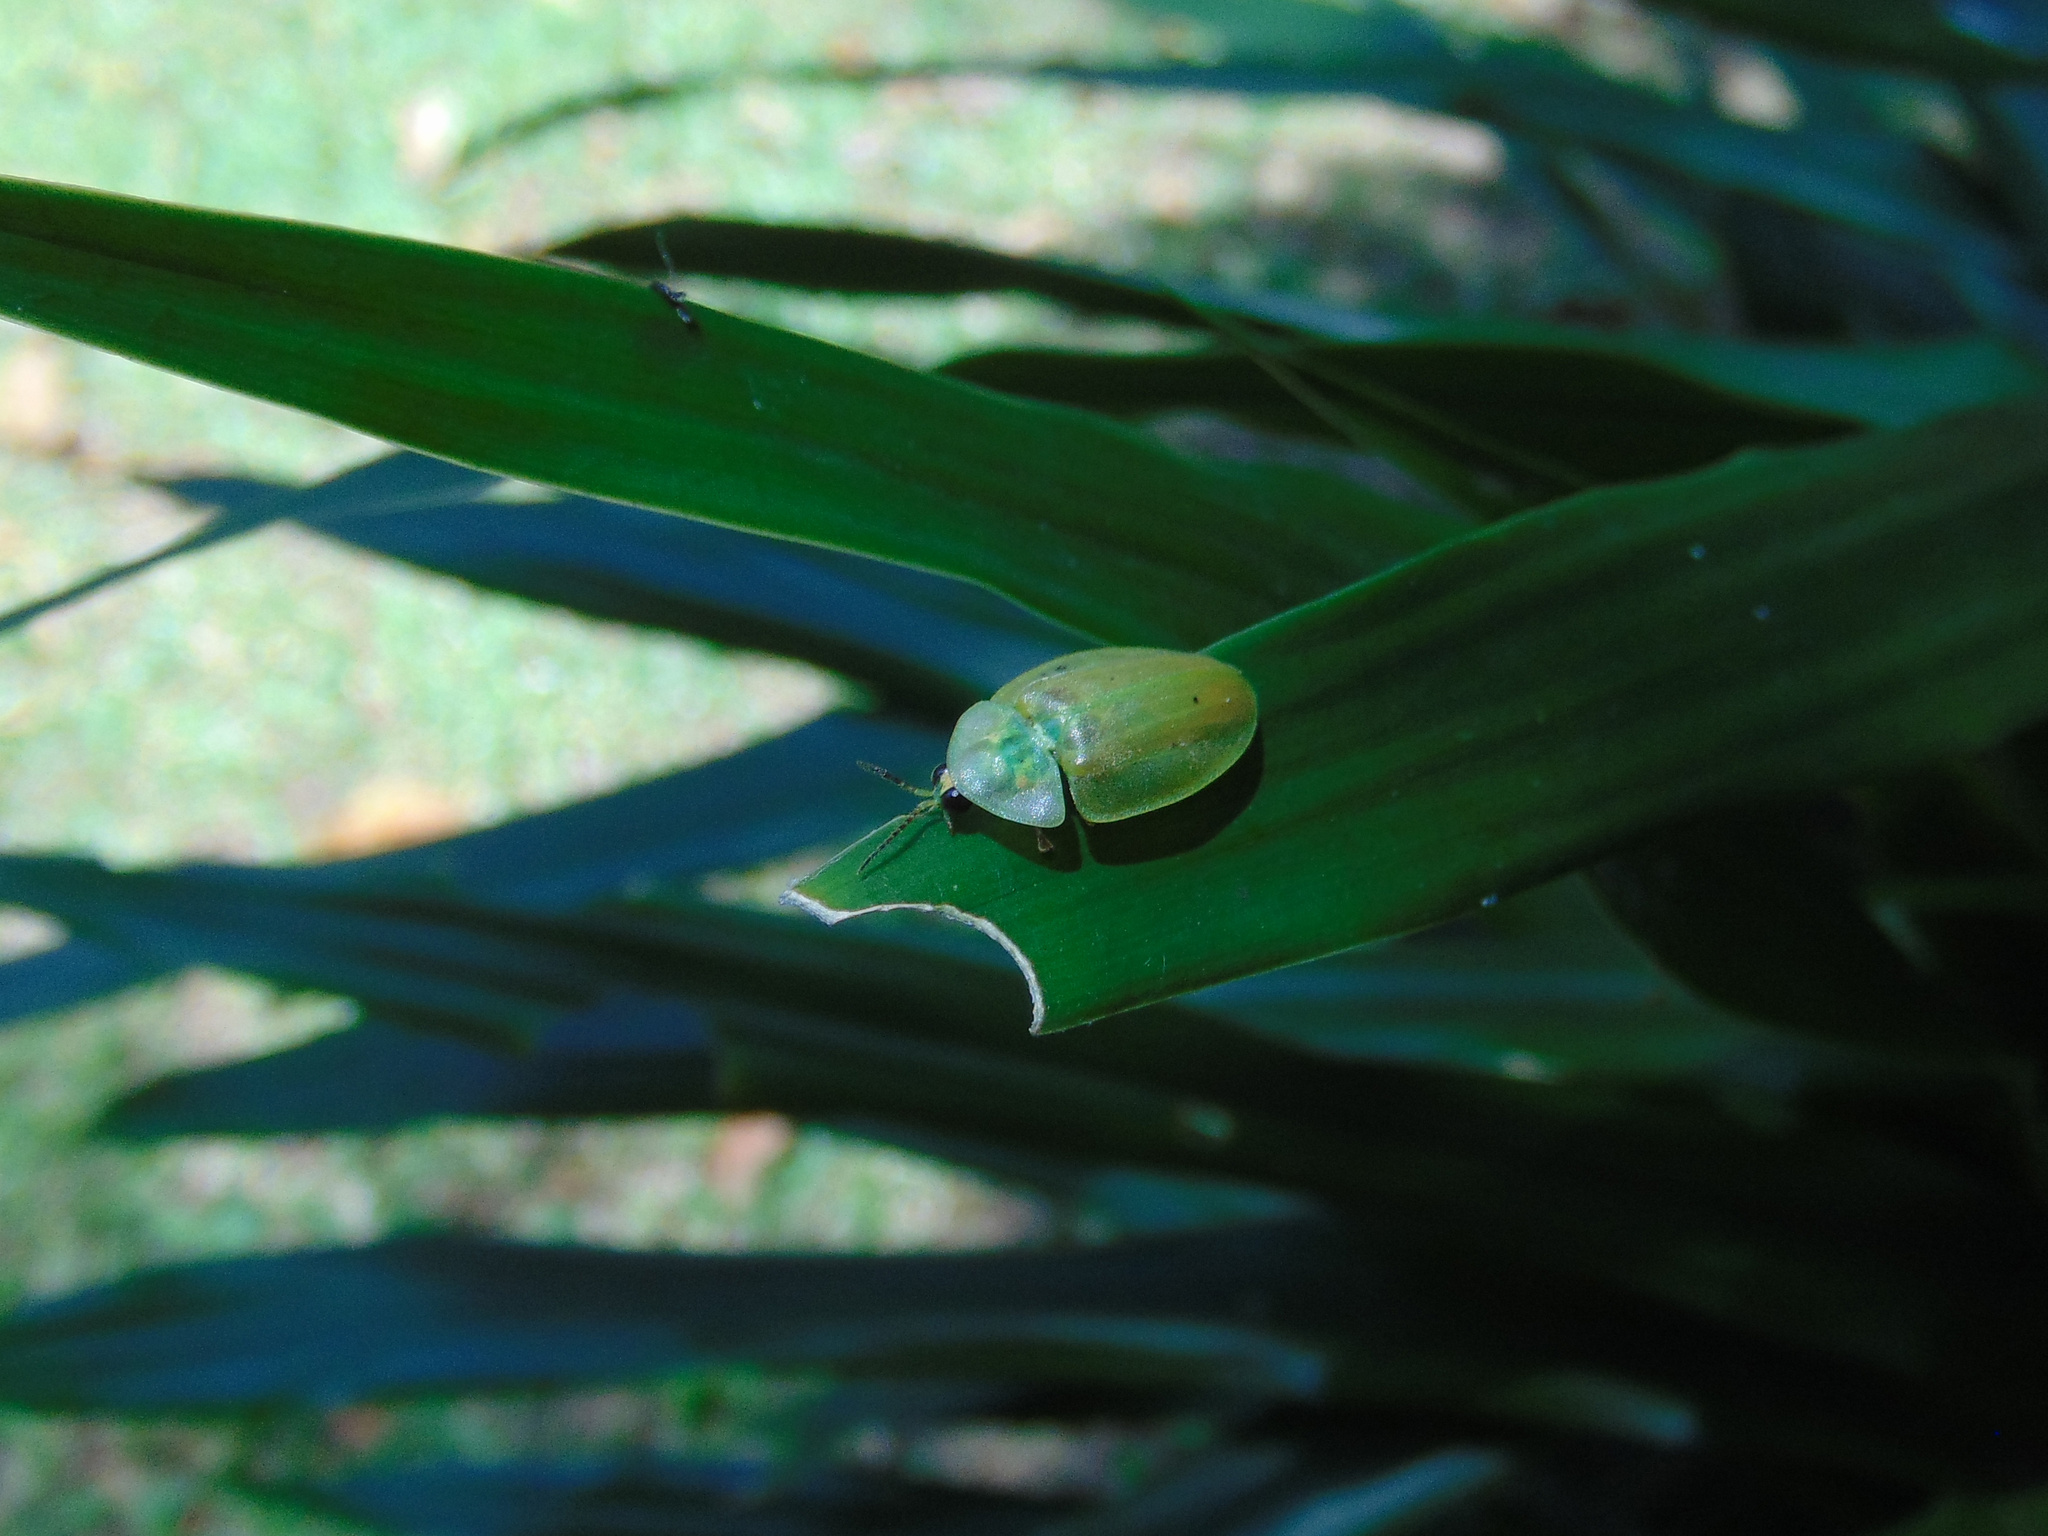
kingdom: Animalia
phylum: Arthropoda
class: Insecta
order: Coleoptera
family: Lampyridae
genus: Aspisoma
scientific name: Aspisoma physonotum
